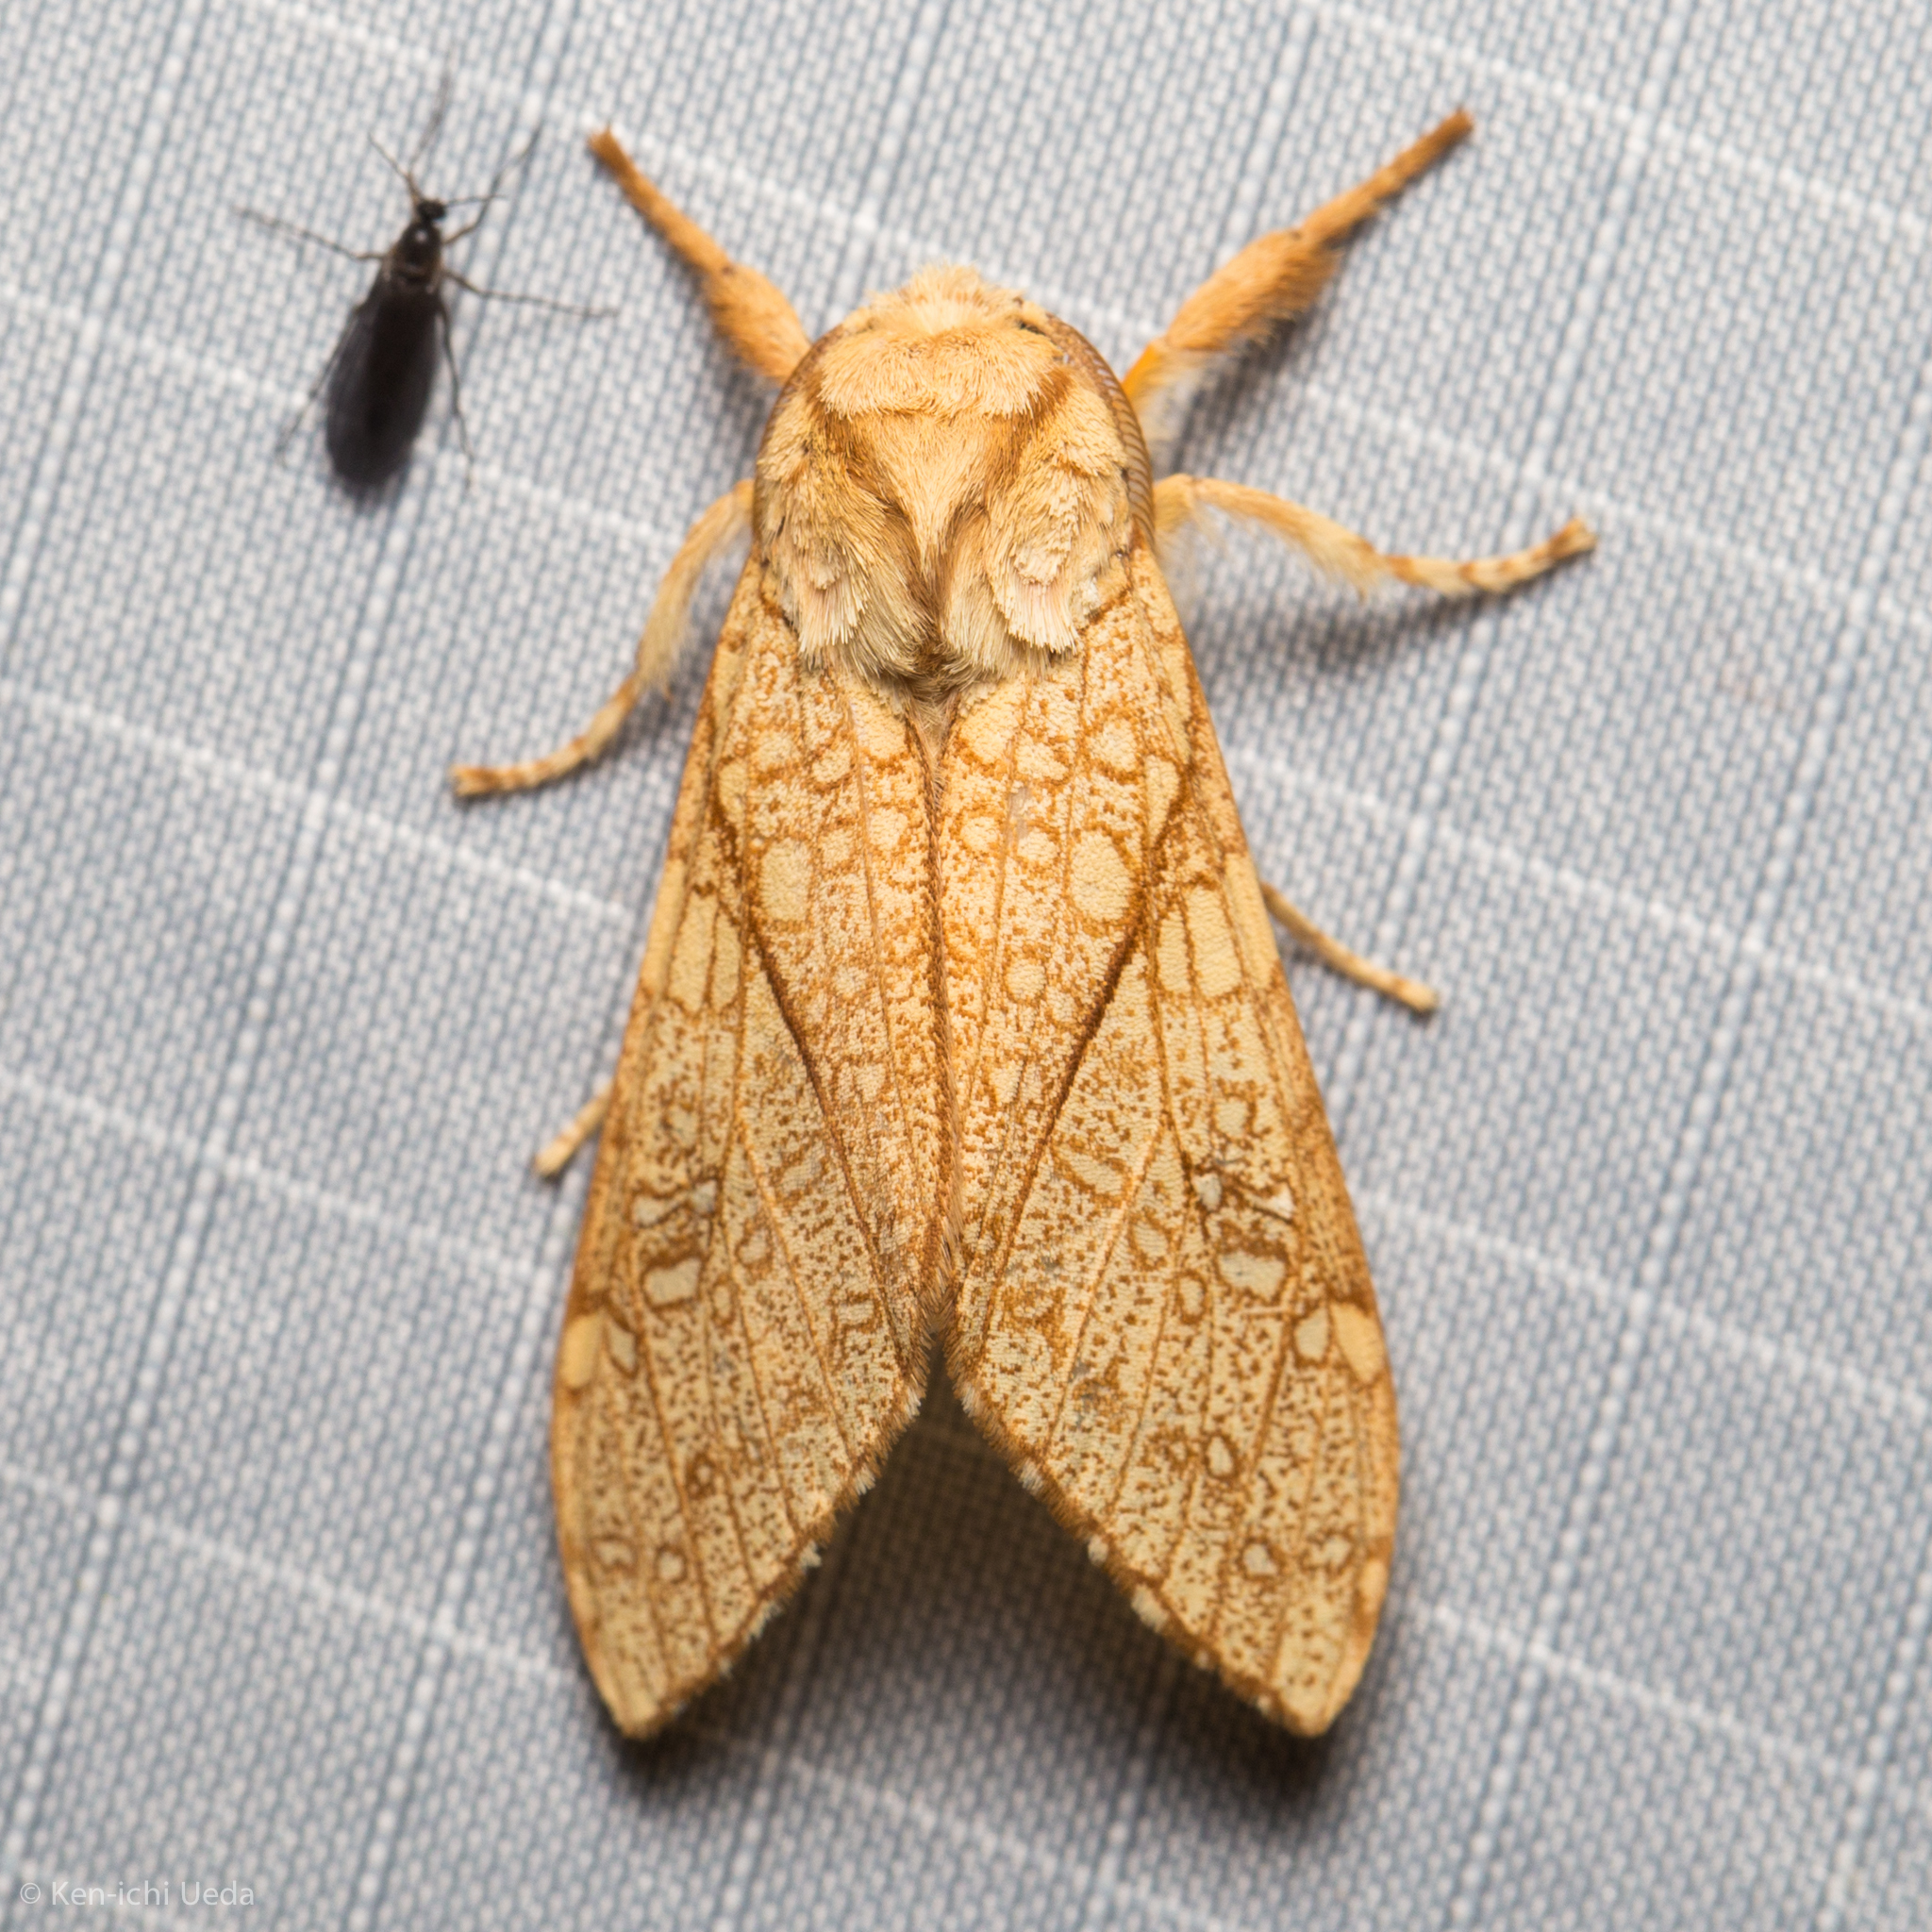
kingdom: Animalia
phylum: Arthropoda
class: Insecta
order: Lepidoptera
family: Erebidae
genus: Lophocampa
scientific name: Lophocampa mixta
